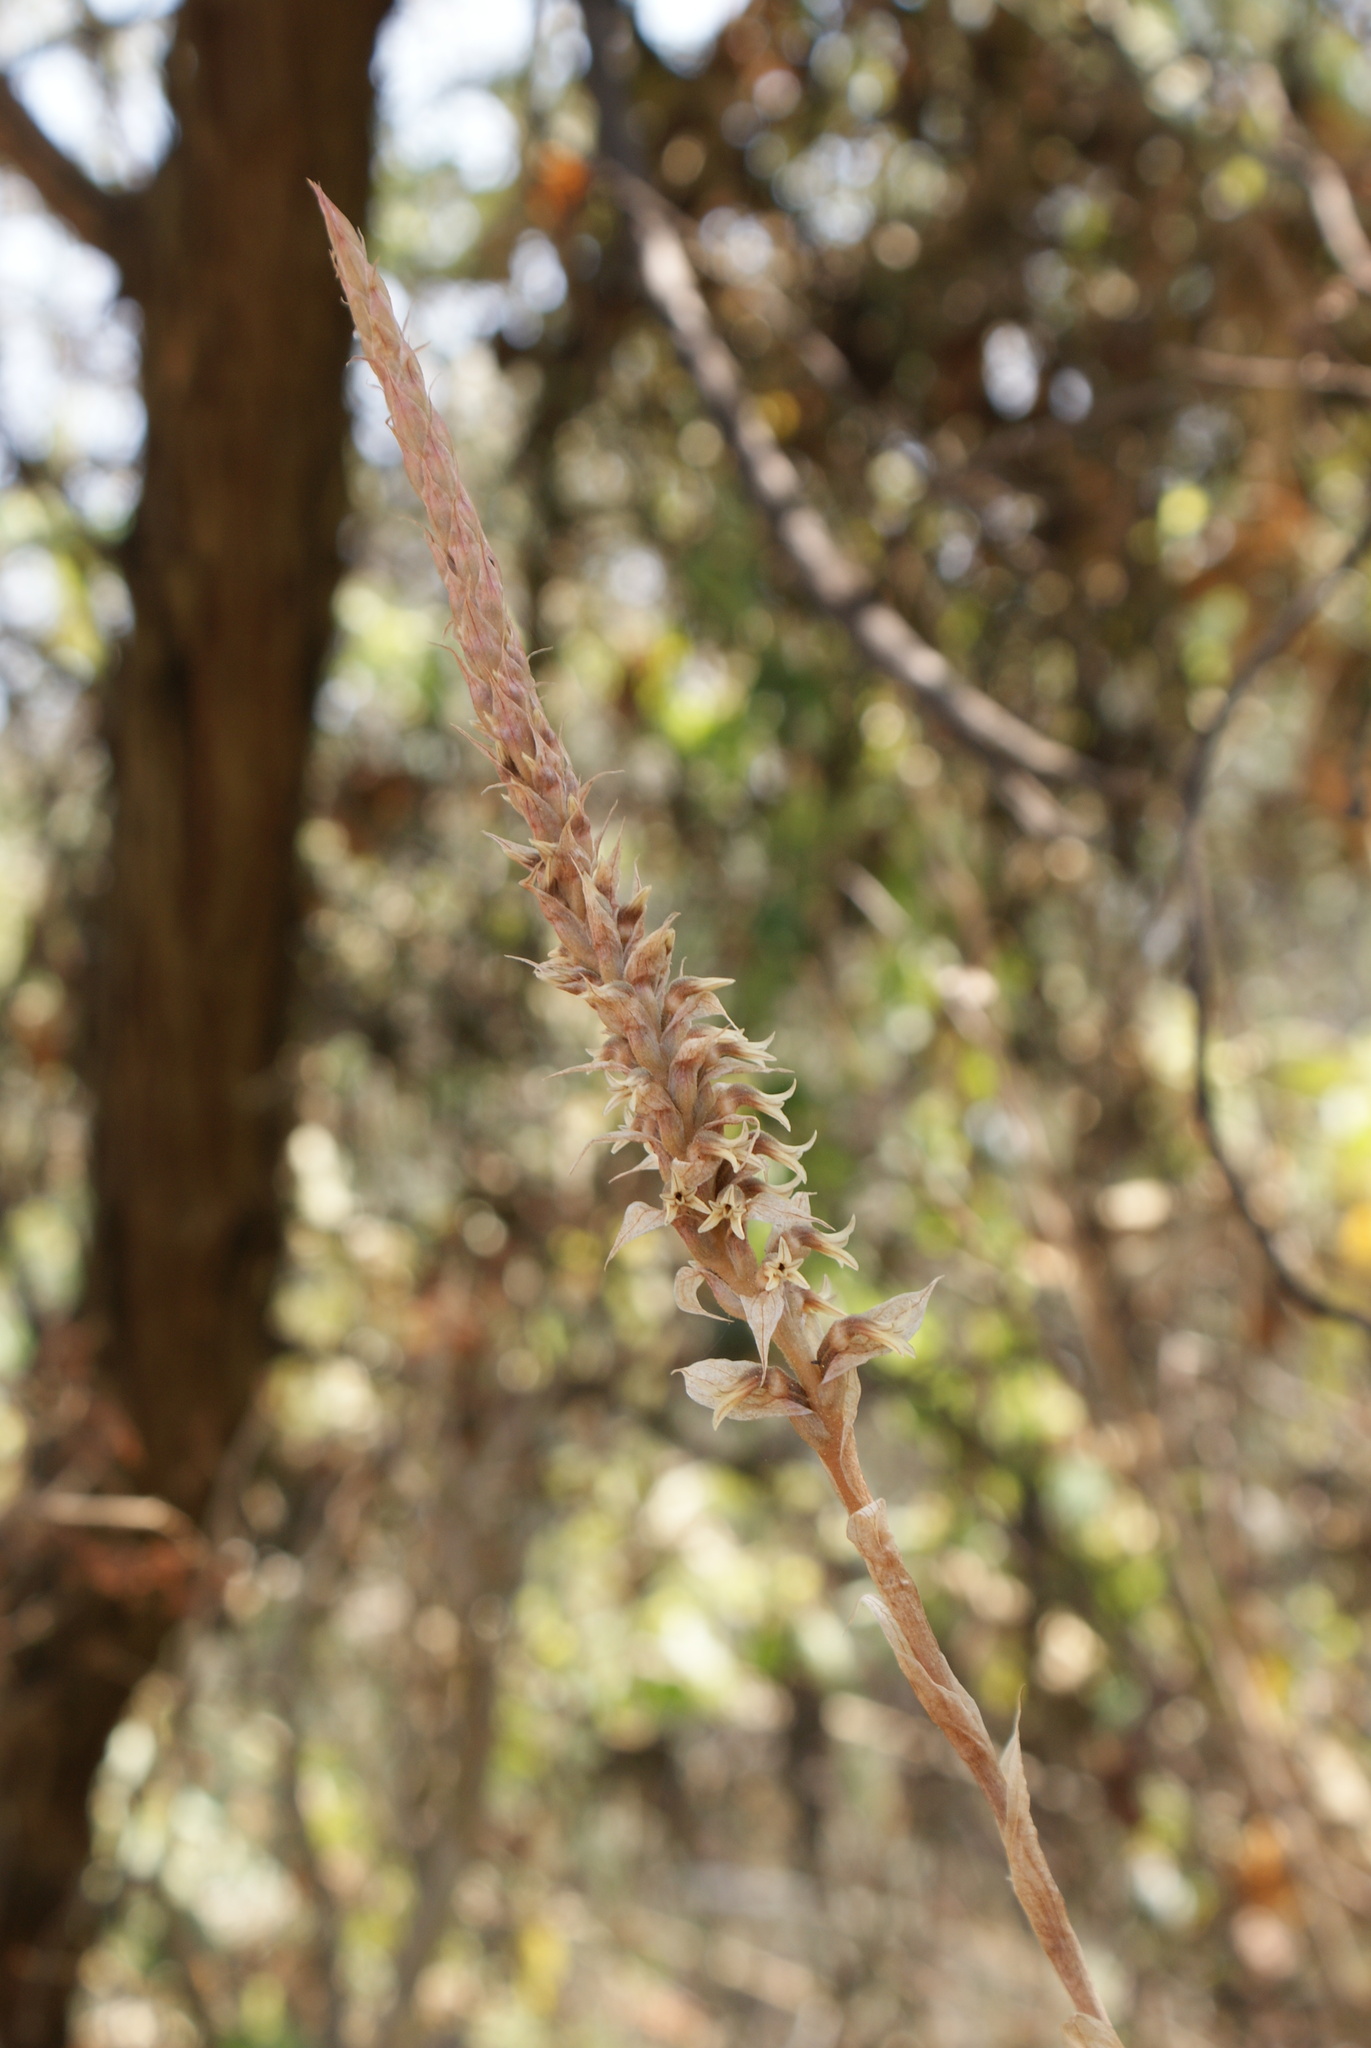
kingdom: Plantae
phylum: Tracheophyta
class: Liliopsida
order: Asparagales
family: Orchidaceae
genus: Aulosepalum
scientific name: Aulosepalum pyramidale
